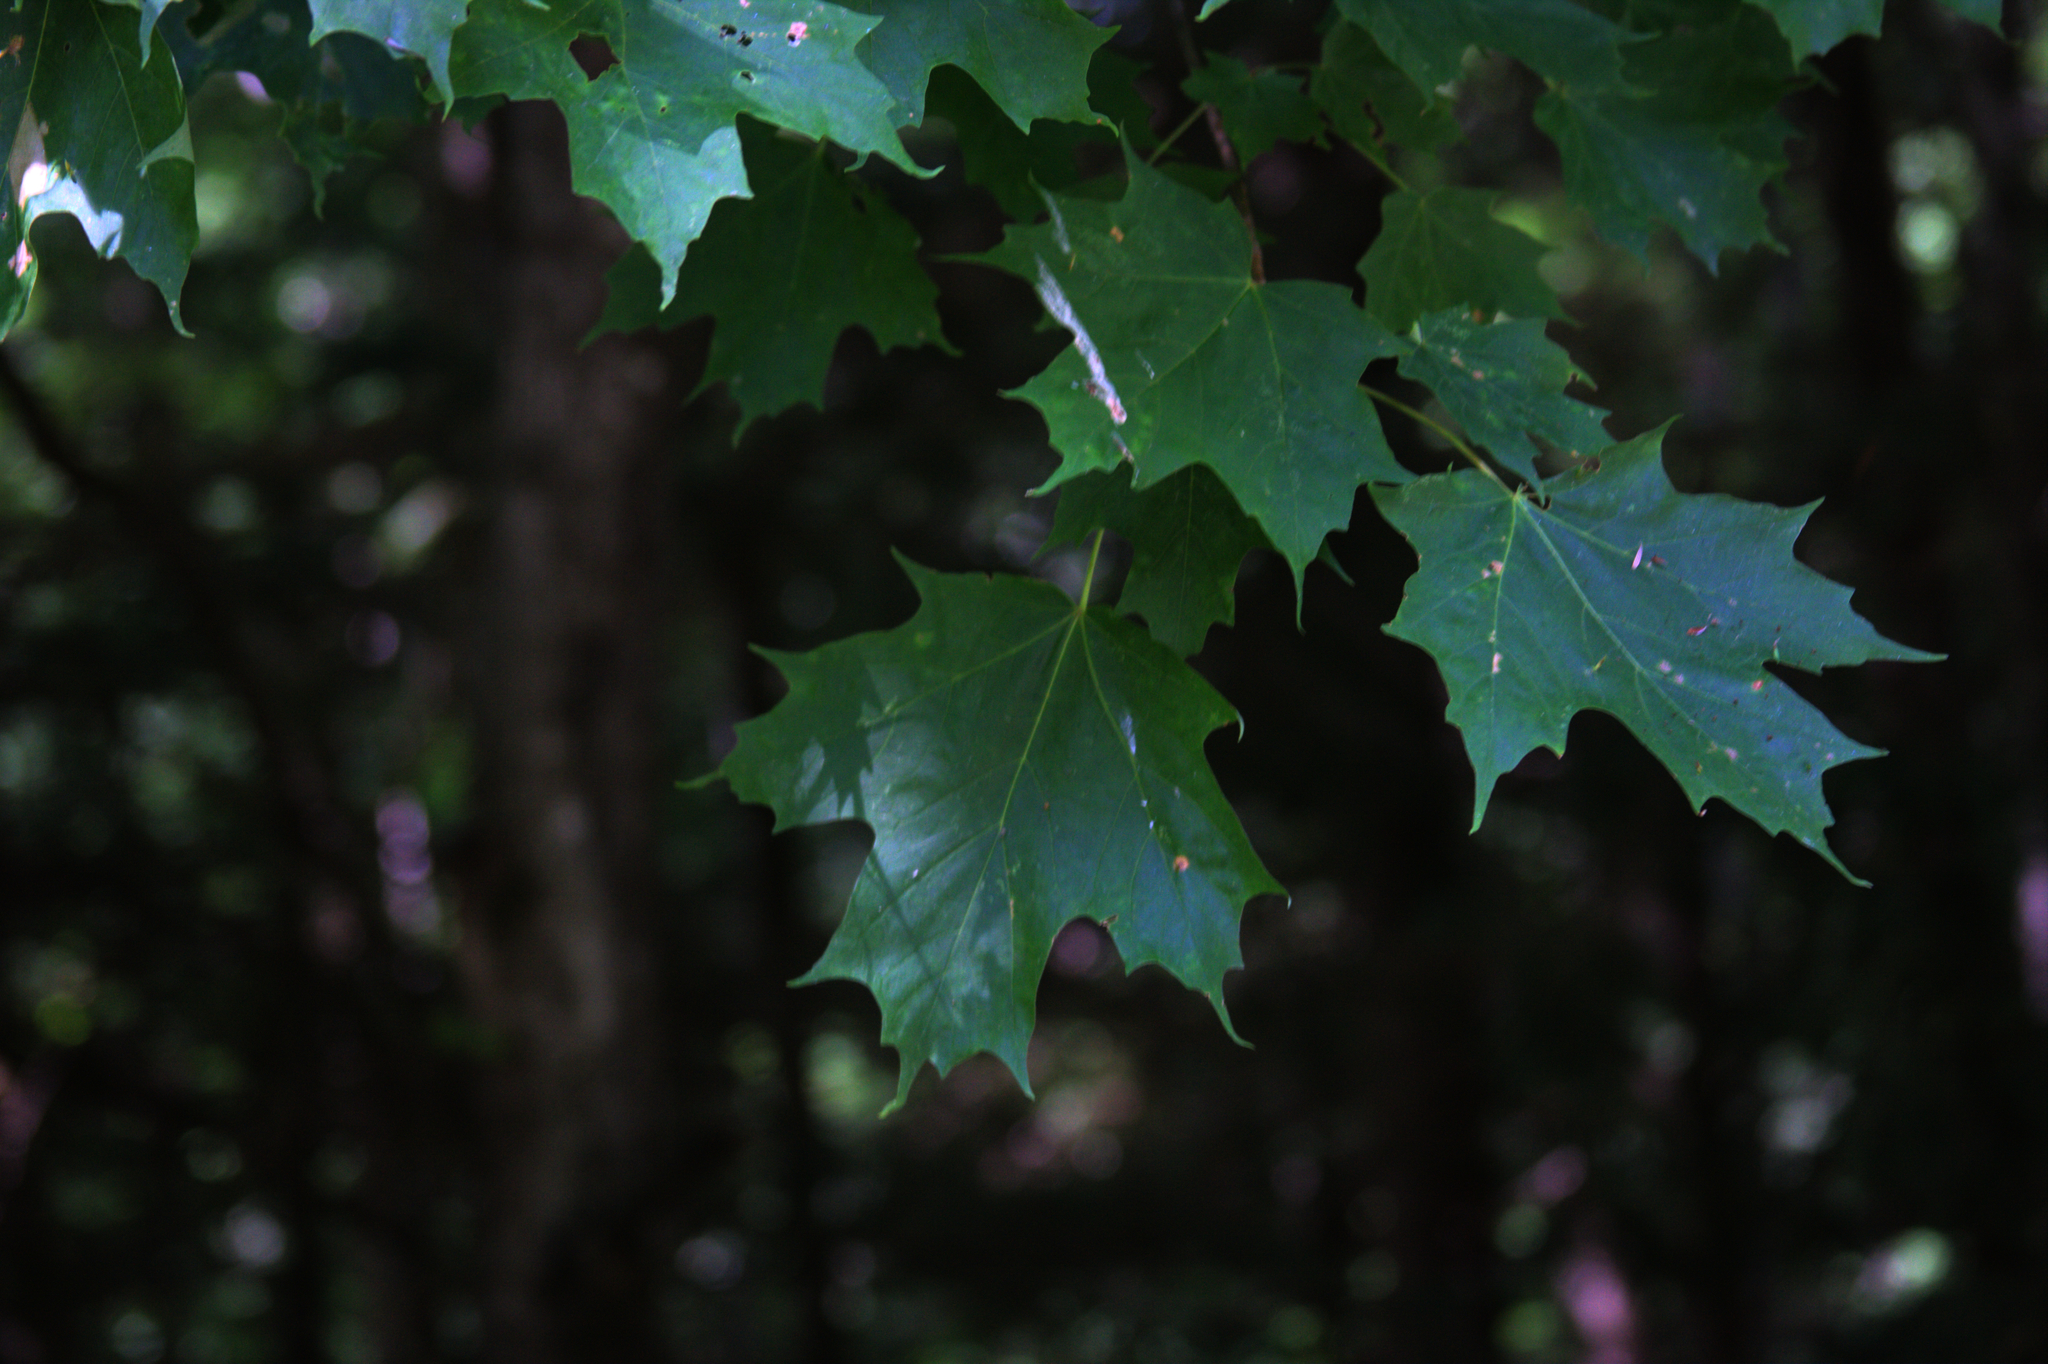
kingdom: Plantae
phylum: Tracheophyta
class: Magnoliopsida
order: Sapindales
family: Sapindaceae
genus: Acer
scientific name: Acer saccharum
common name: Sugar maple
